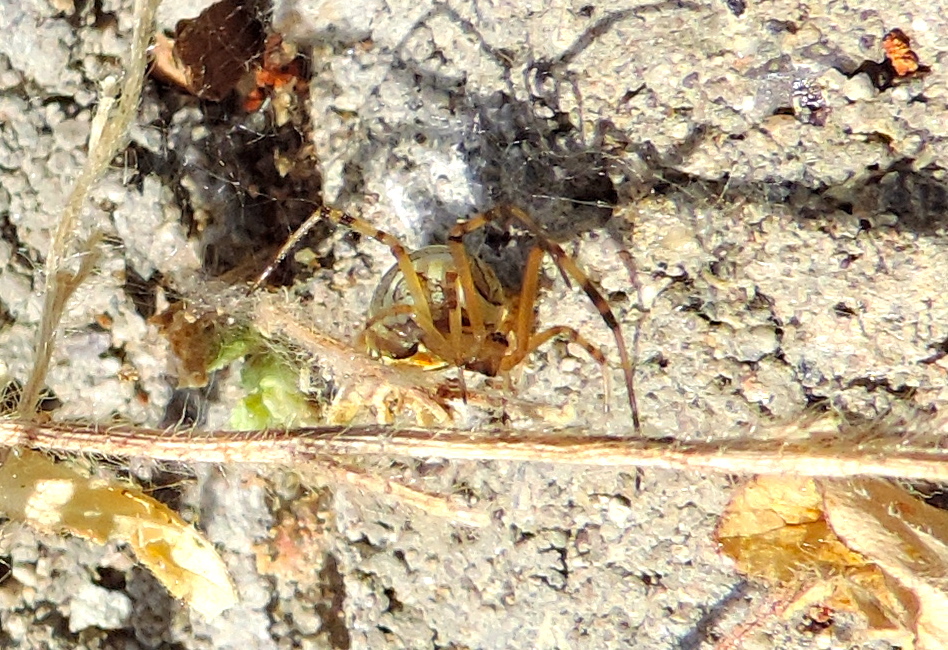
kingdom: Animalia
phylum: Arthropoda
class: Arachnida
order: Araneae
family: Theridiidae
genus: Latrodectus
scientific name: Latrodectus geometricus
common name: Brown widow spider
